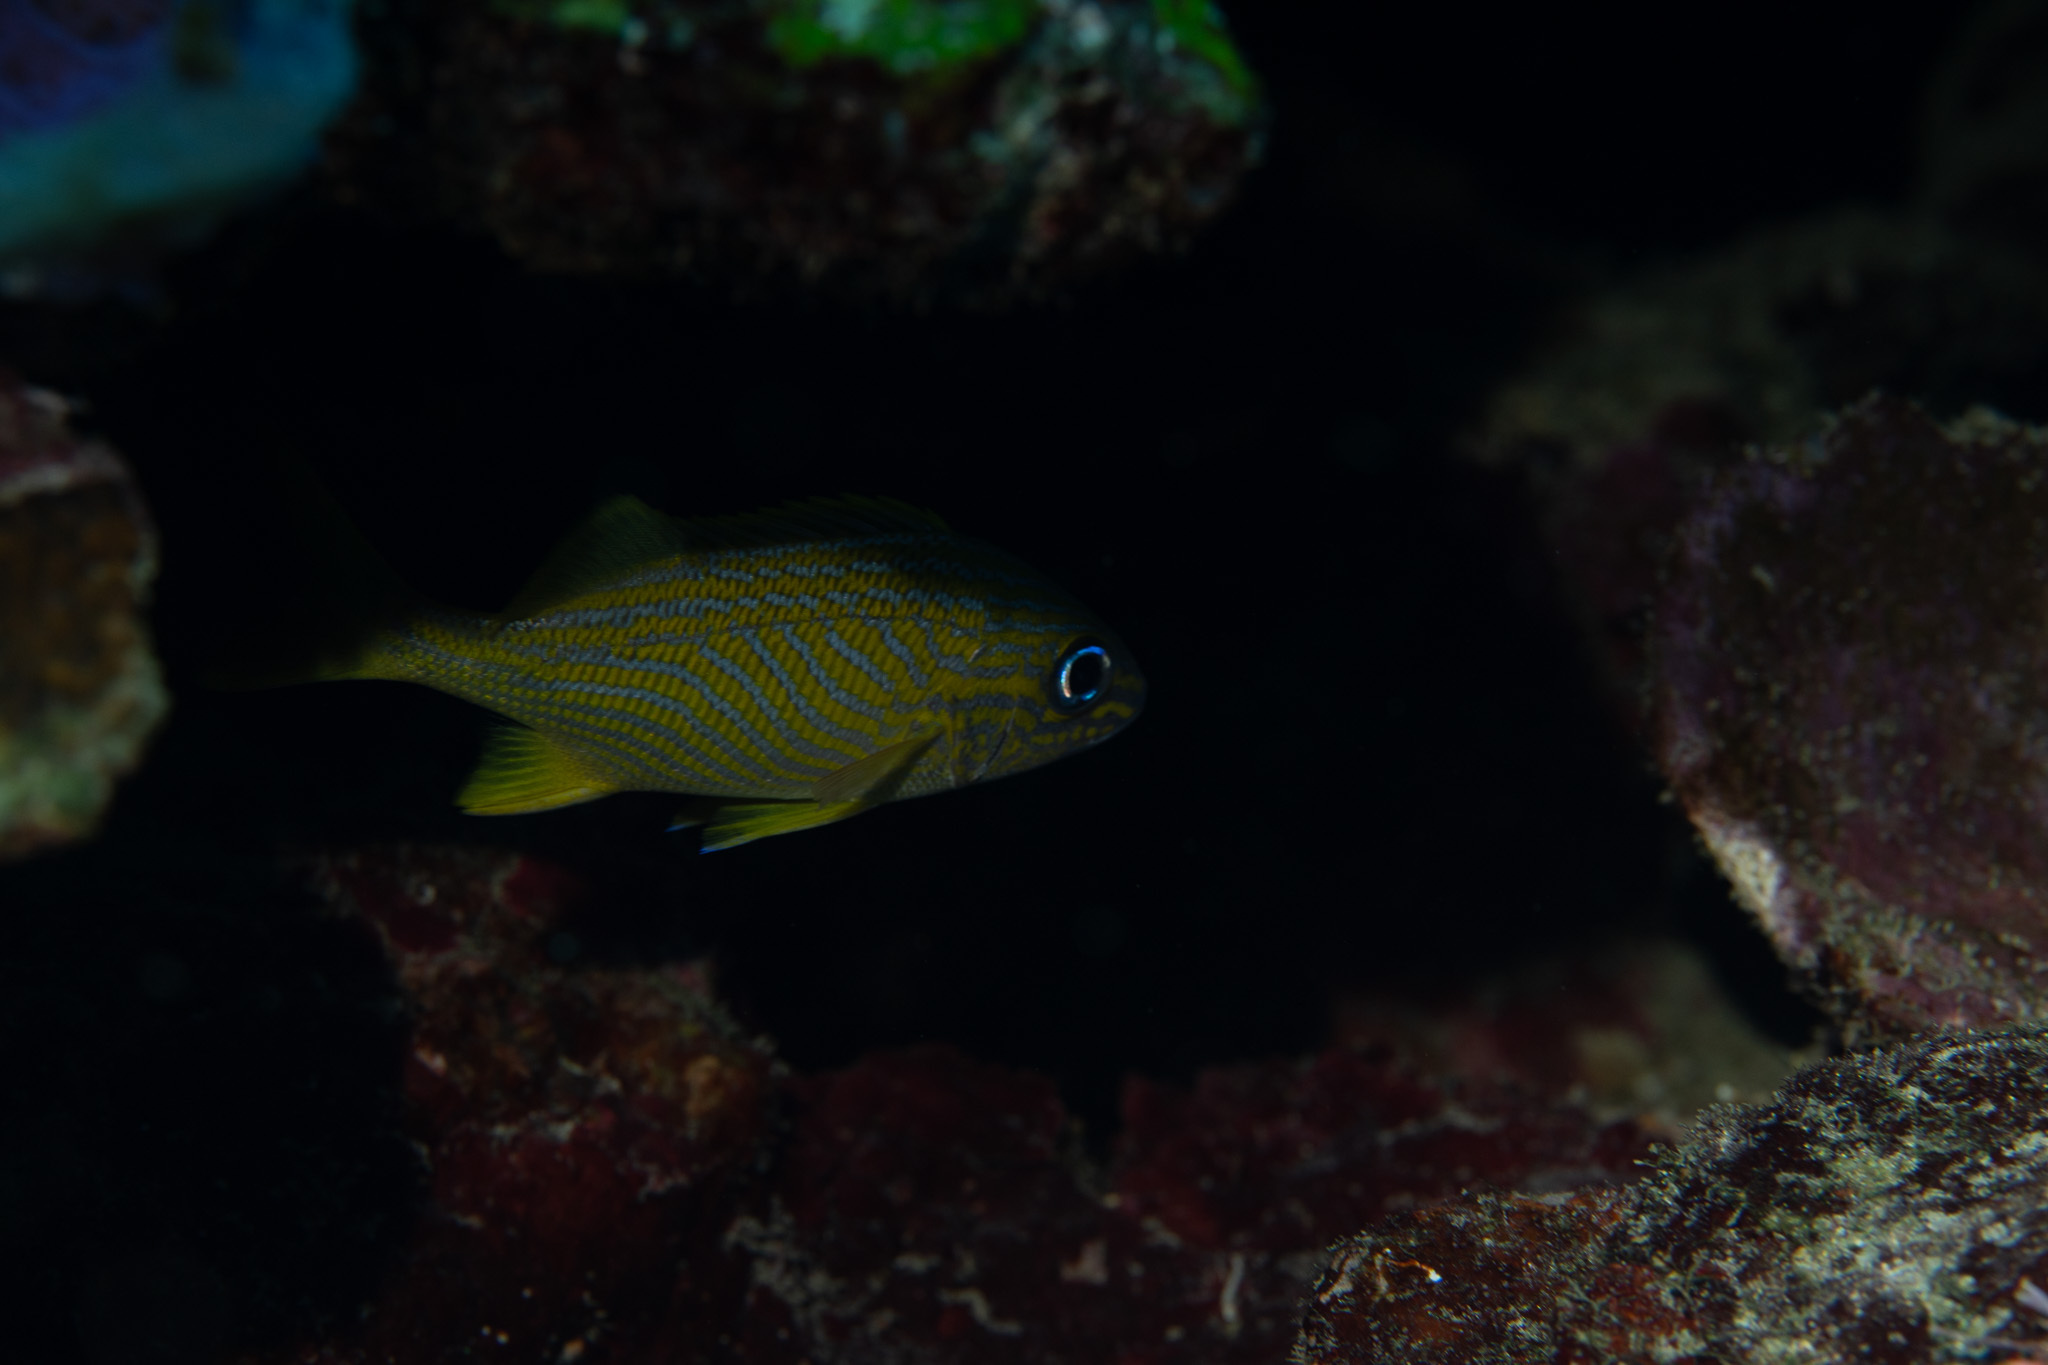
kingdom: Animalia
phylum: Chordata
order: Perciformes
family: Haemulidae
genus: Haemulon
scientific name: Haemulon flavolineatum
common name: French grunt
